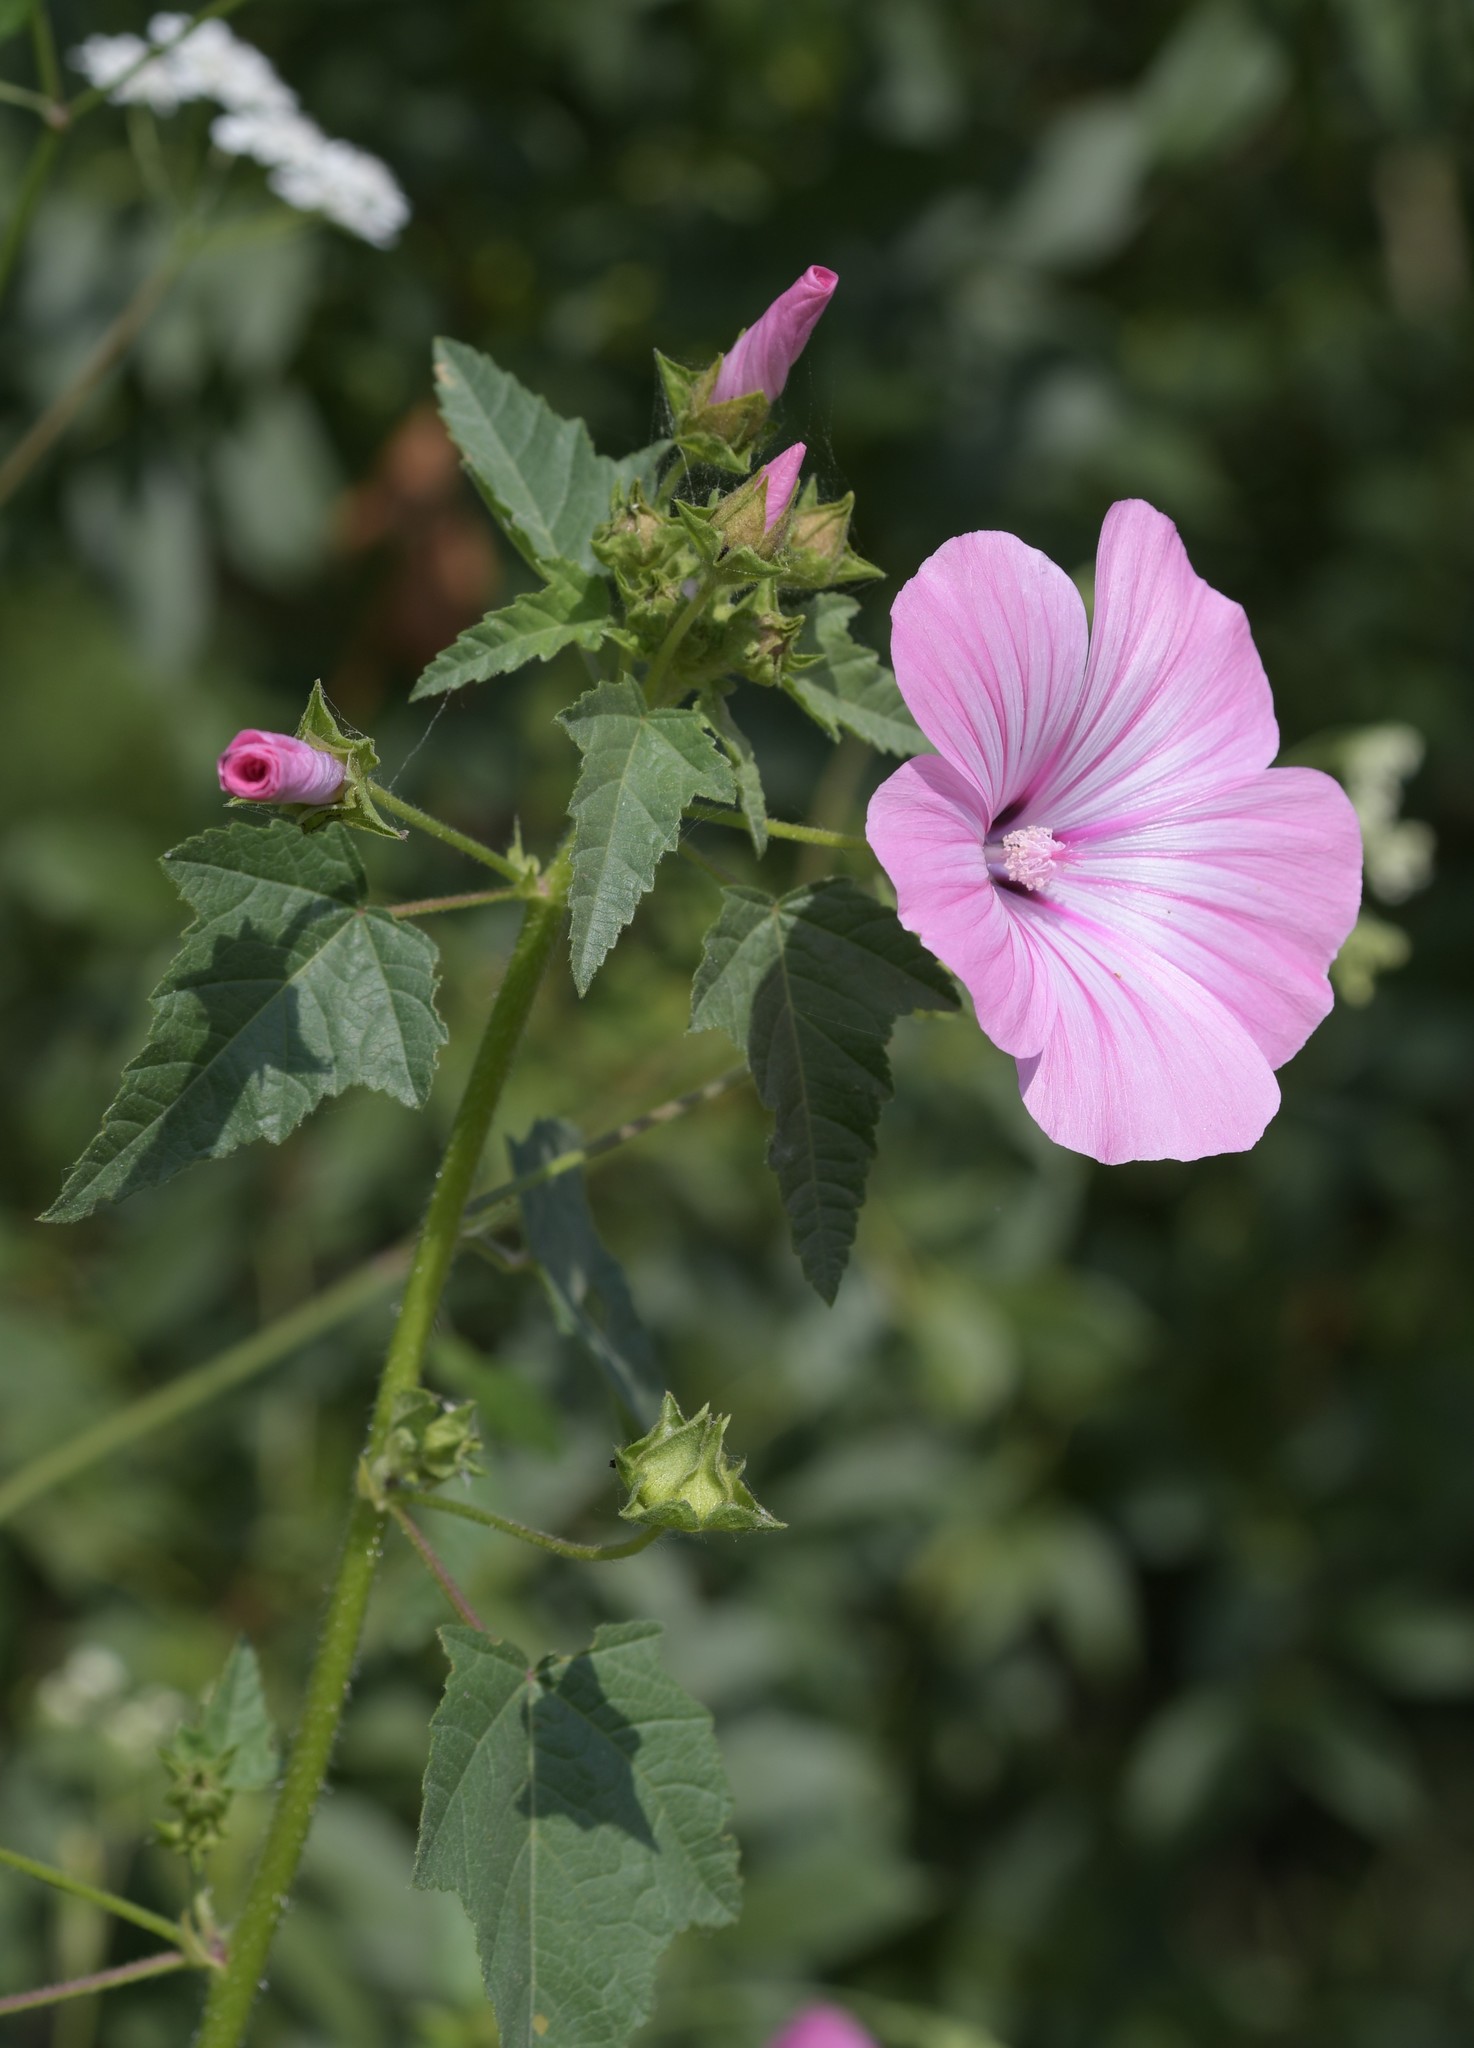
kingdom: Plantae
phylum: Tracheophyta
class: Magnoliopsida
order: Malvales
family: Malvaceae
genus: Malva
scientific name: Malva trimestris
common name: Royal mallow
